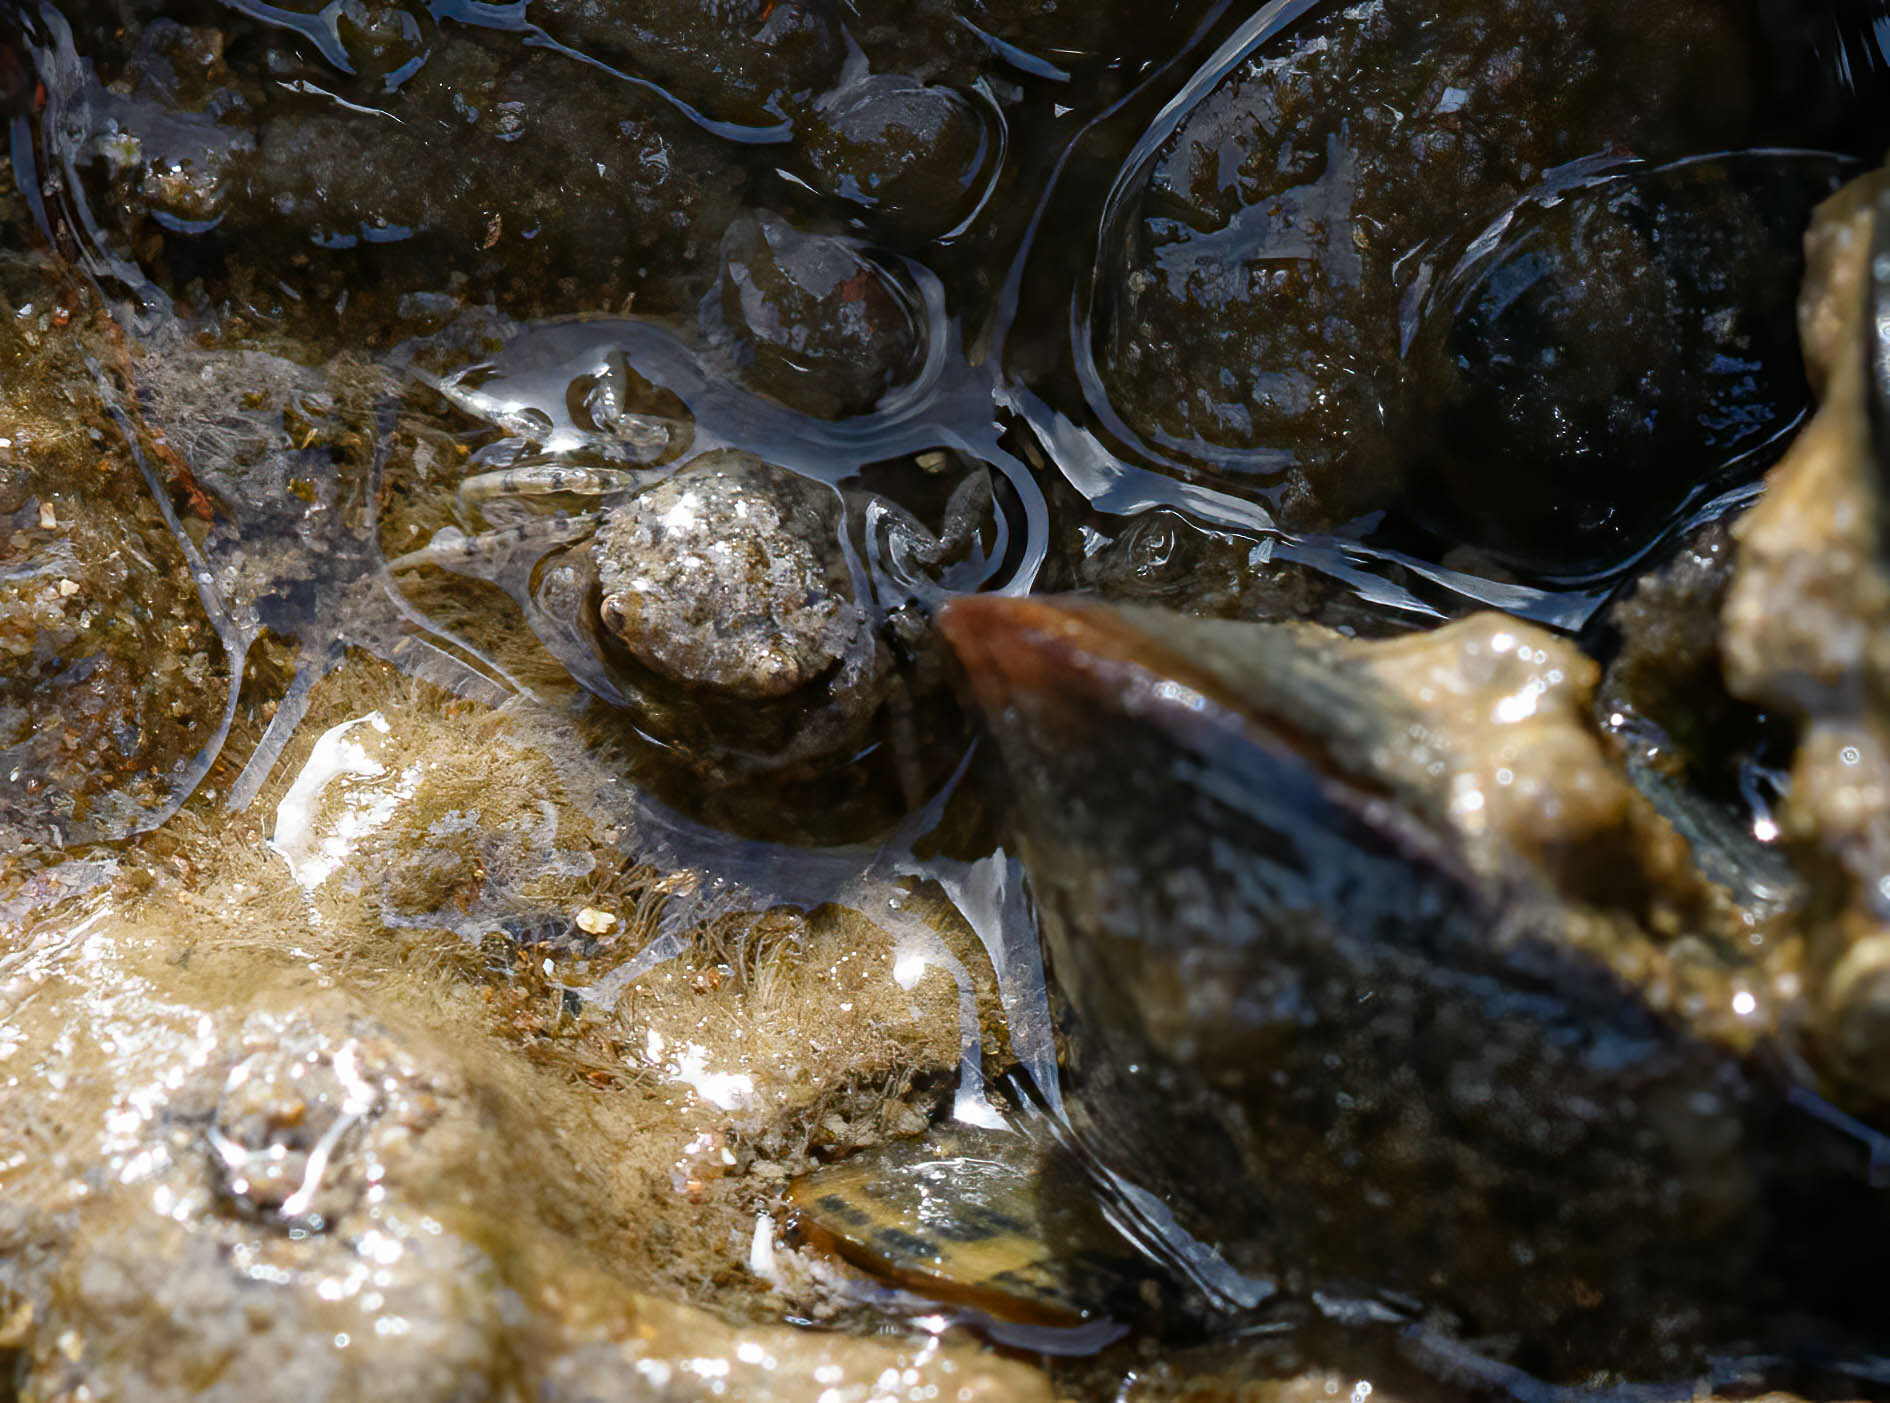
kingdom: Animalia
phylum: Arthropoda
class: Malacostraca
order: Decapoda
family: Carcinidae
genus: Carcinus
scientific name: Carcinus maenas
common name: European green crab
